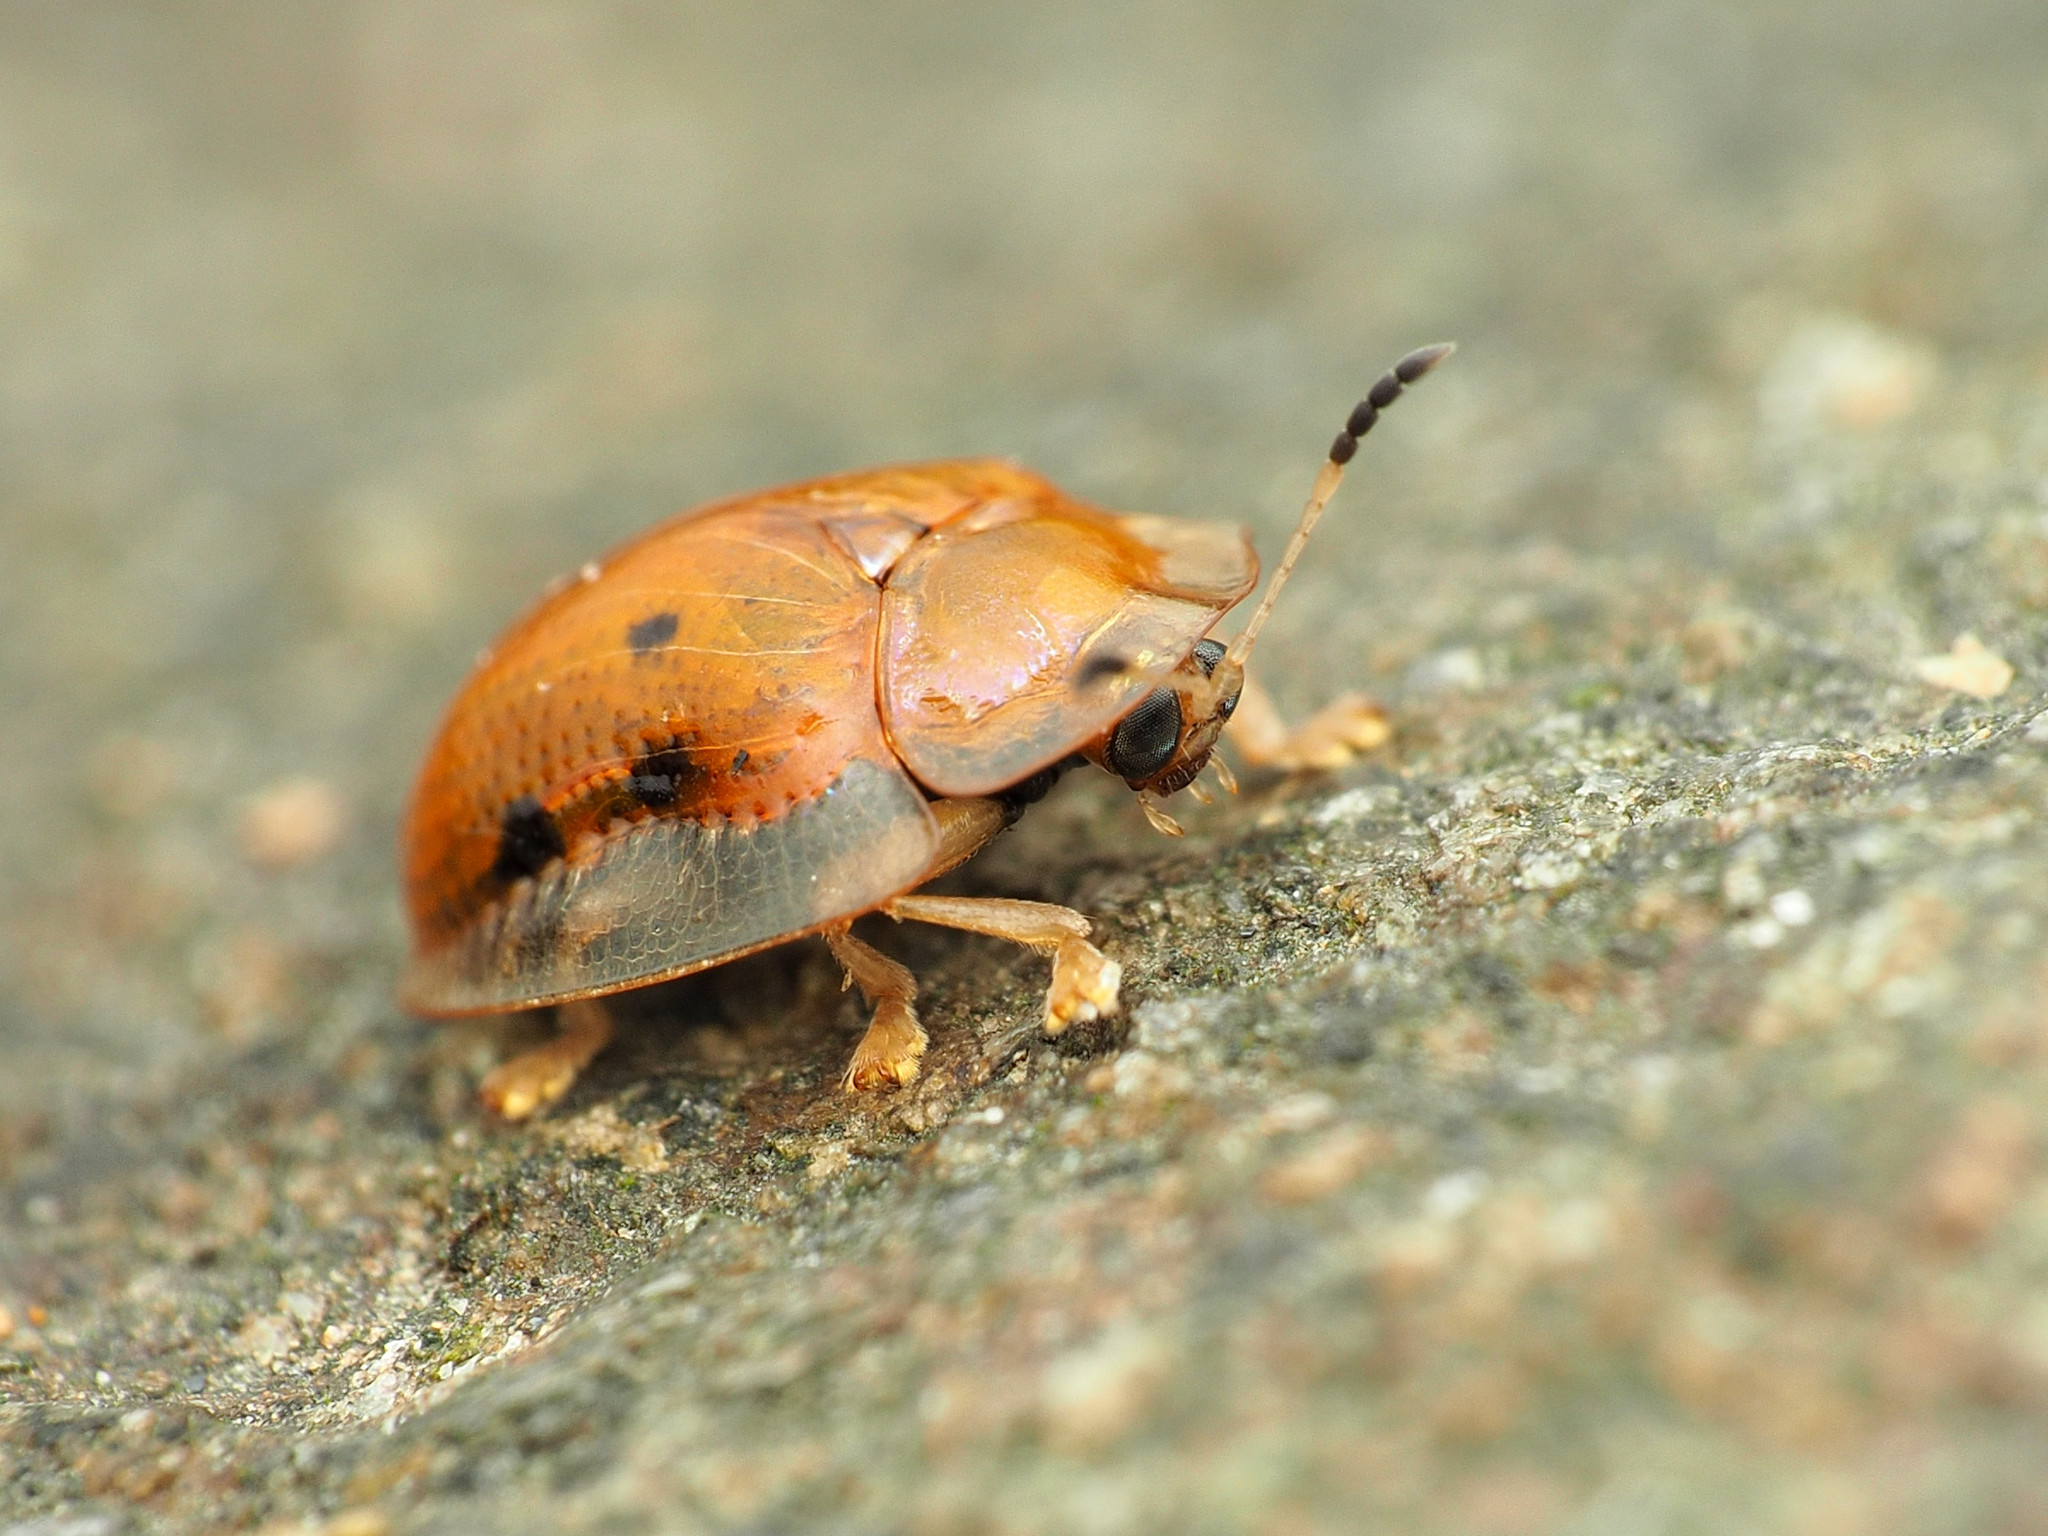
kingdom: Animalia
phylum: Arthropoda
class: Insecta
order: Coleoptera
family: Chrysomelidae
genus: Charidotella
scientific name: Charidotella sexpunctata
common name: Golden tortoise beetle
